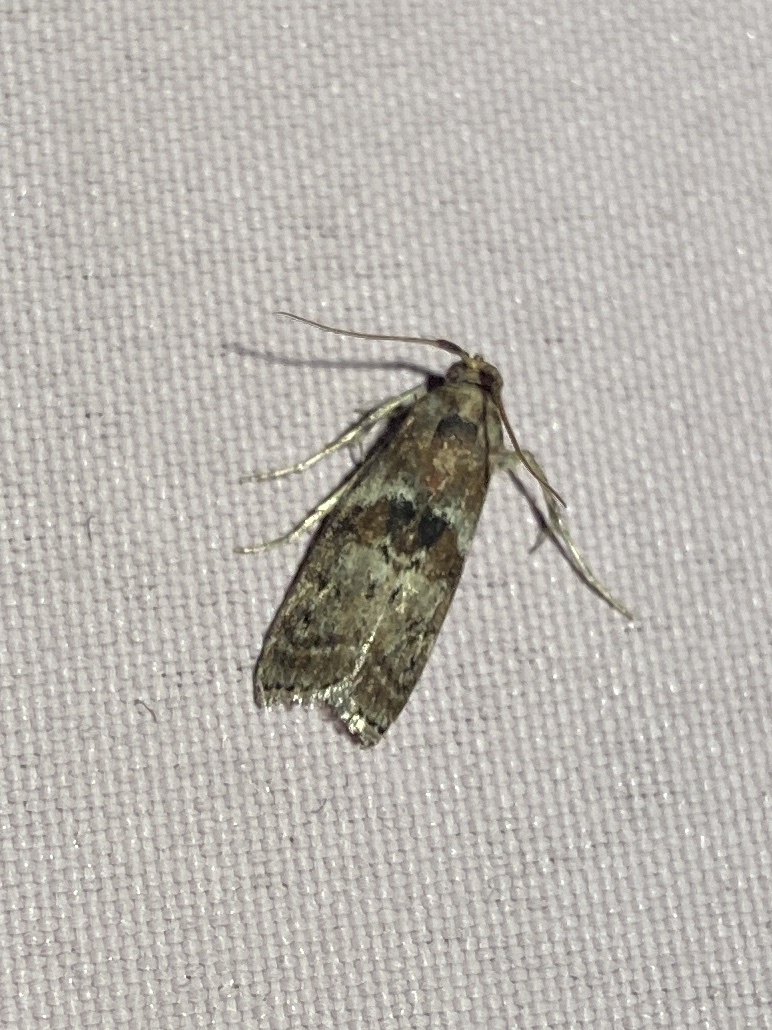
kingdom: Animalia
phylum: Arthropoda
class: Insecta
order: Lepidoptera
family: Pyralidae
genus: Phycita
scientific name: Phycita roborella
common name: Dotted oak knot-horn
